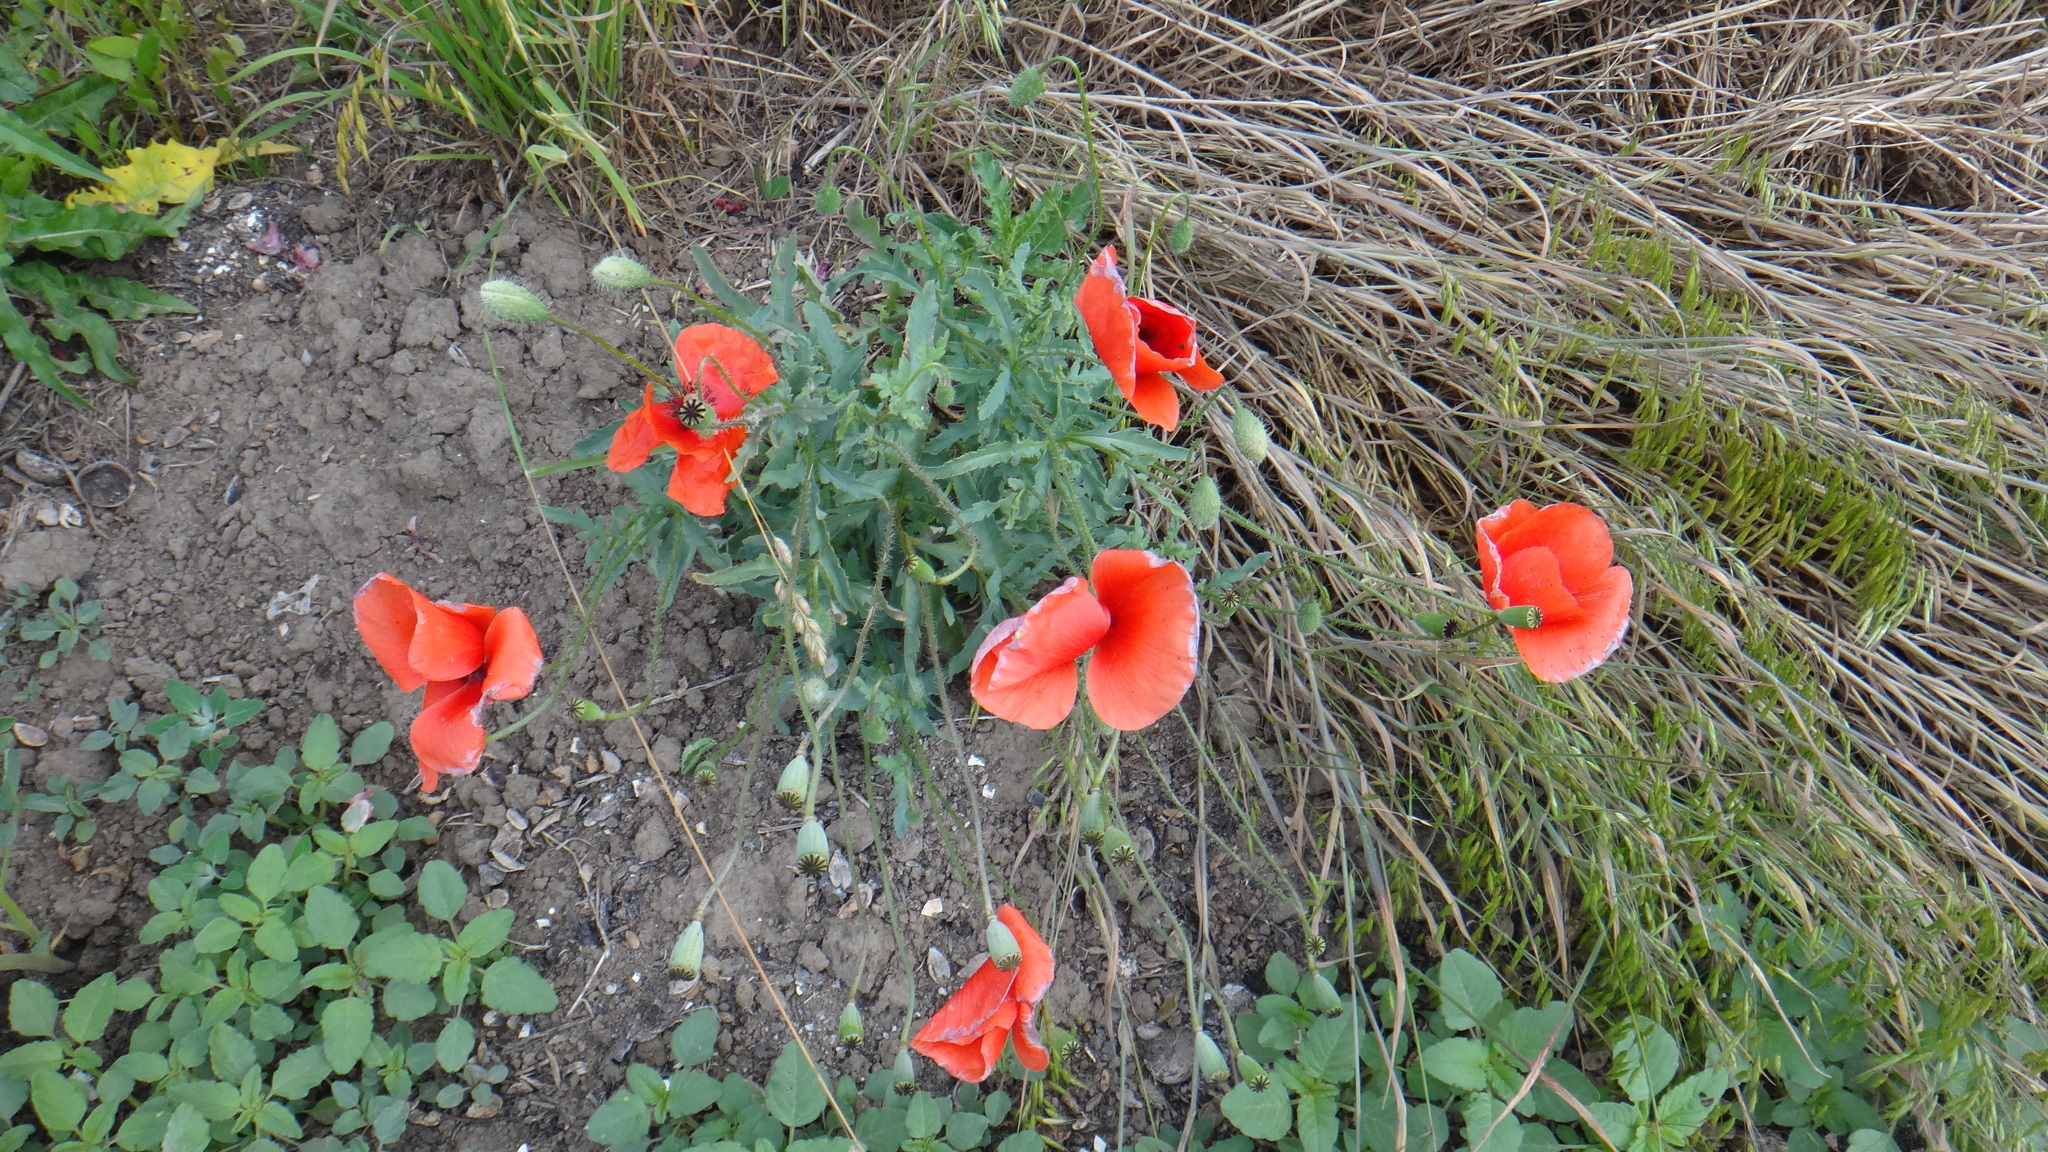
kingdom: Plantae
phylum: Tracheophyta
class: Magnoliopsida
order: Ranunculales
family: Papaveraceae
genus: Papaver
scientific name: Papaver rhoeas
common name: Corn poppy
